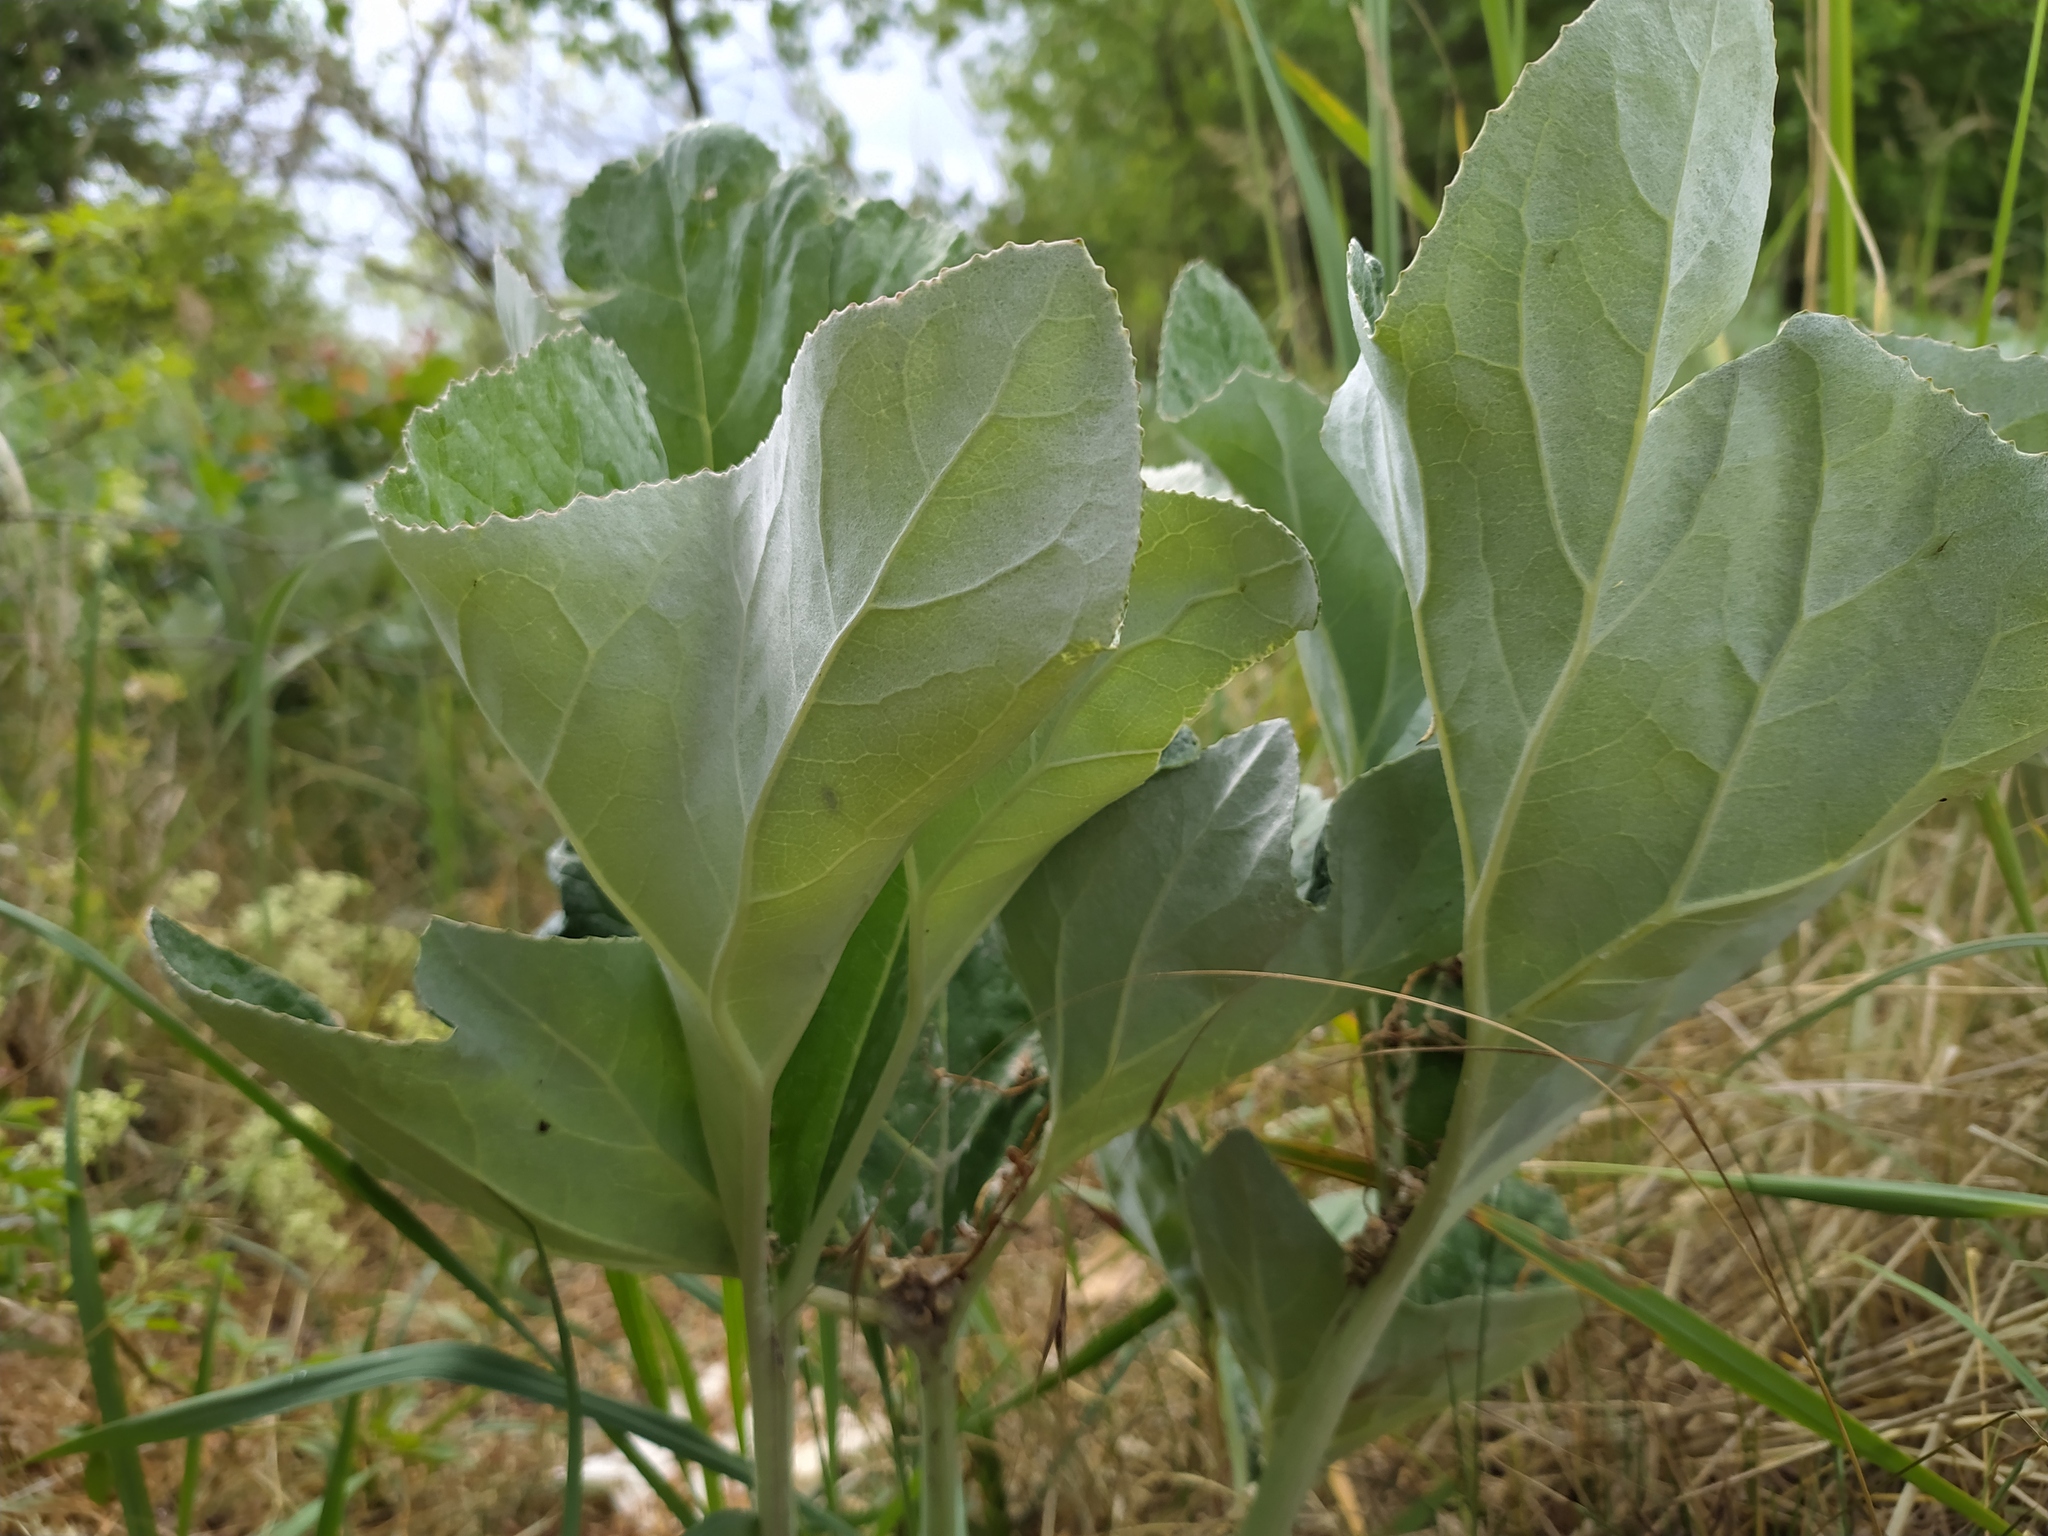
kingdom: Plantae
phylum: Tracheophyta
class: Magnoliopsida
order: Asterales
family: Asteraceae
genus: Petasites
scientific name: Petasites spurius
